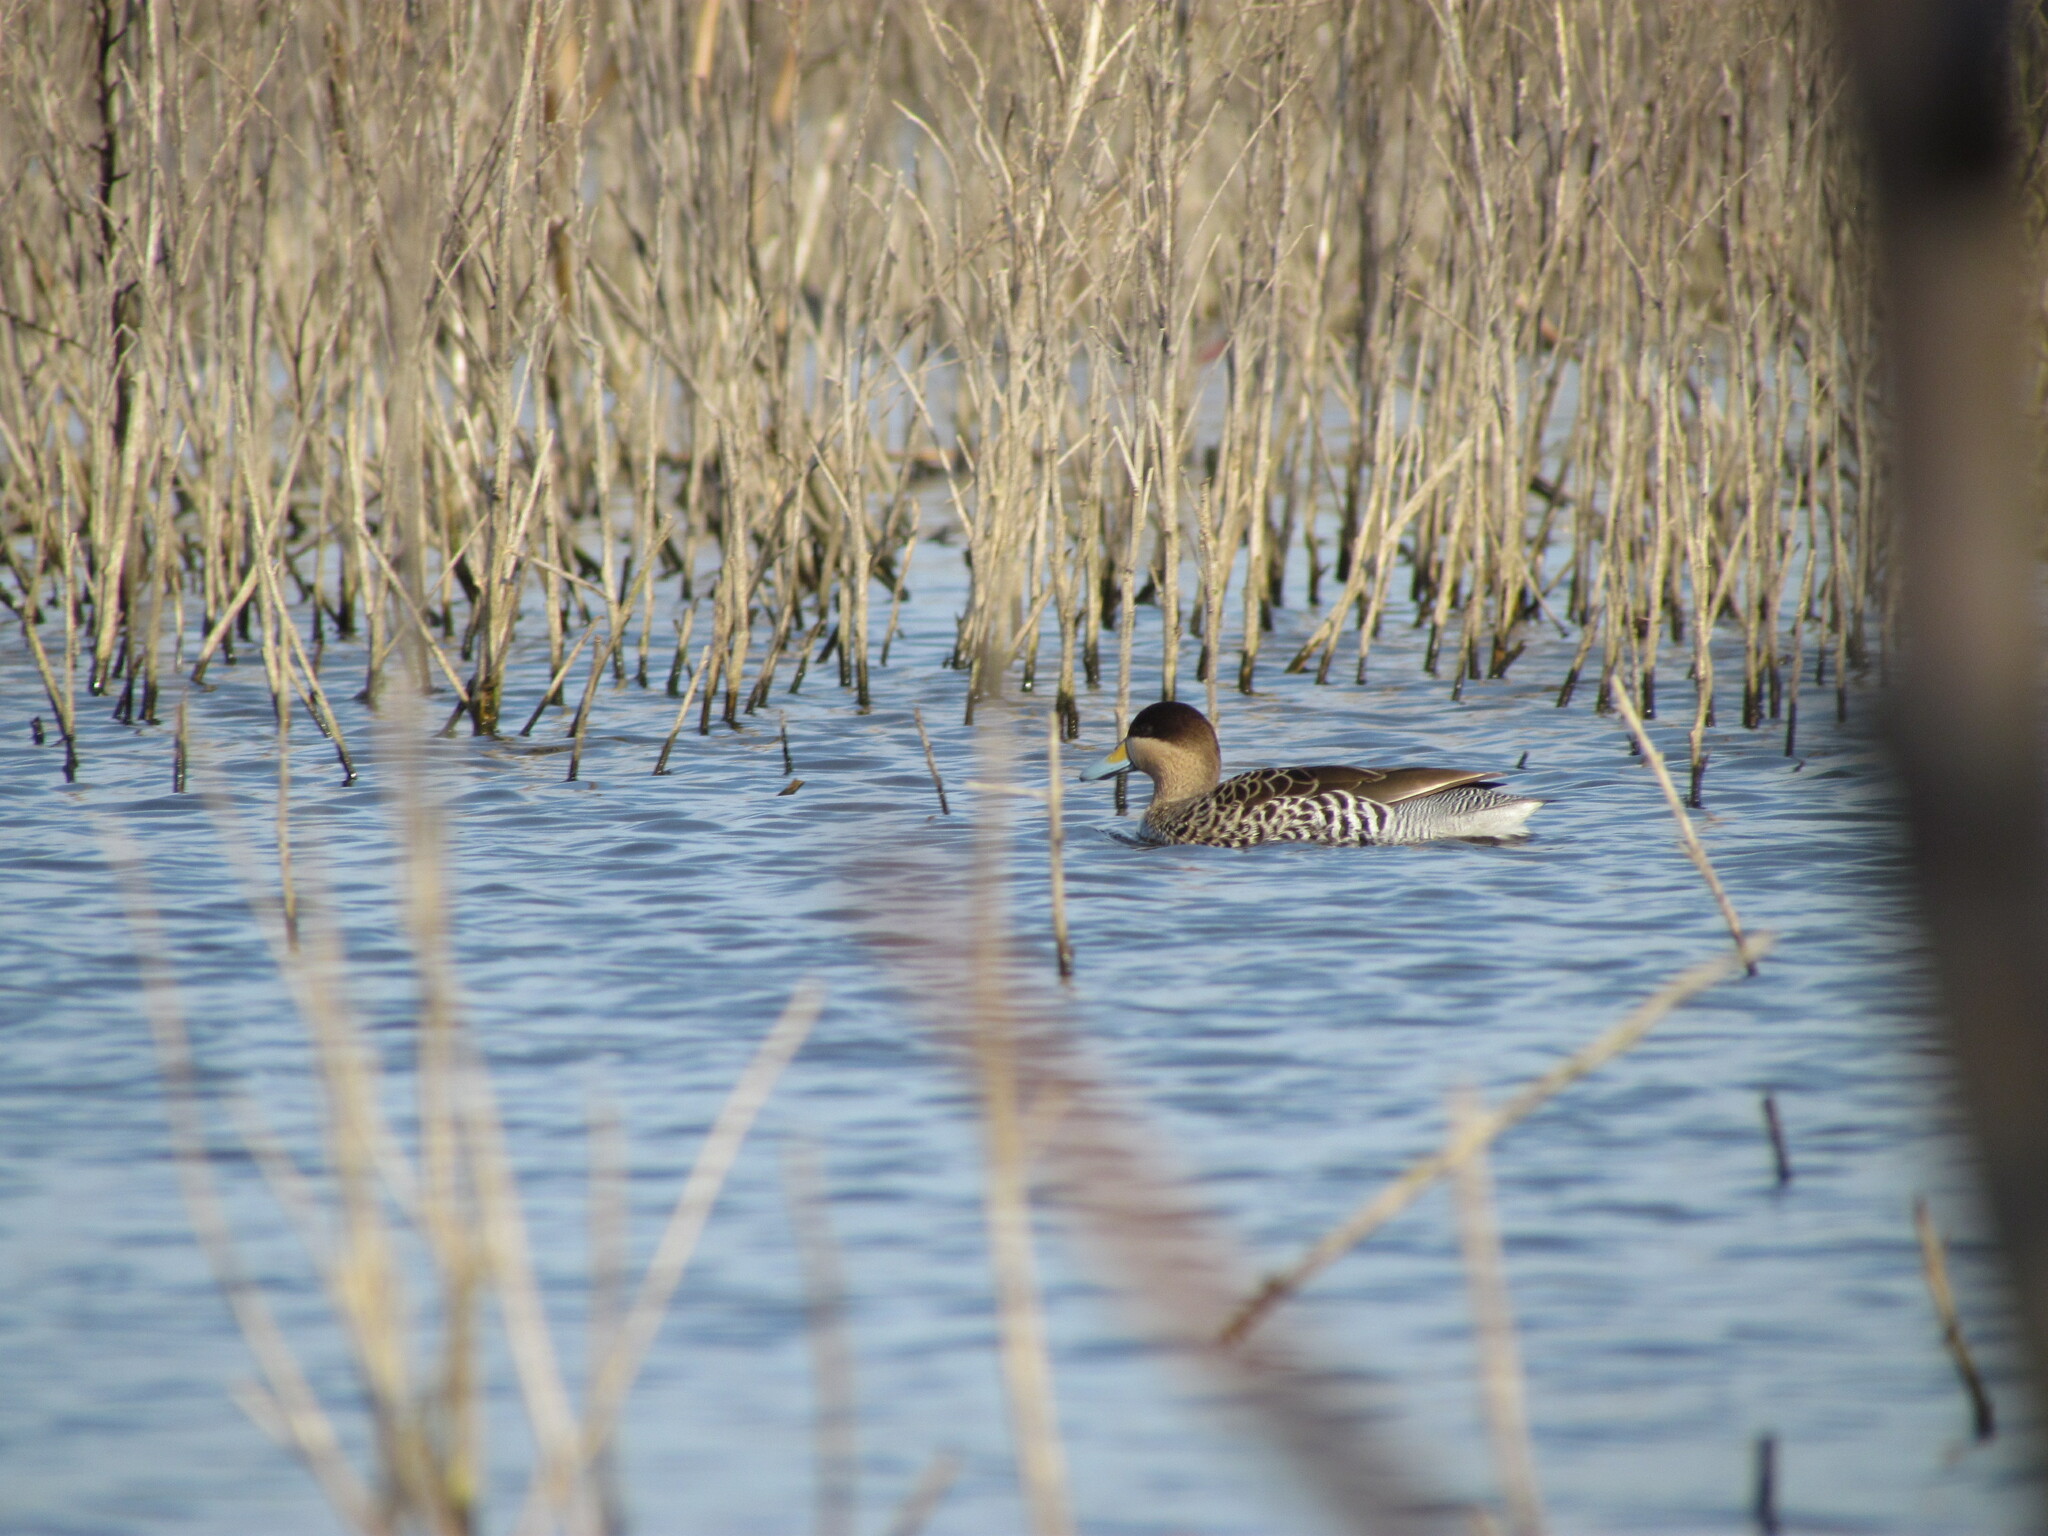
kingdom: Animalia
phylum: Chordata
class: Aves
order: Anseriformes
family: Anatidae
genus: Spatula
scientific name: Spatula versicolor
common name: Silver teal
